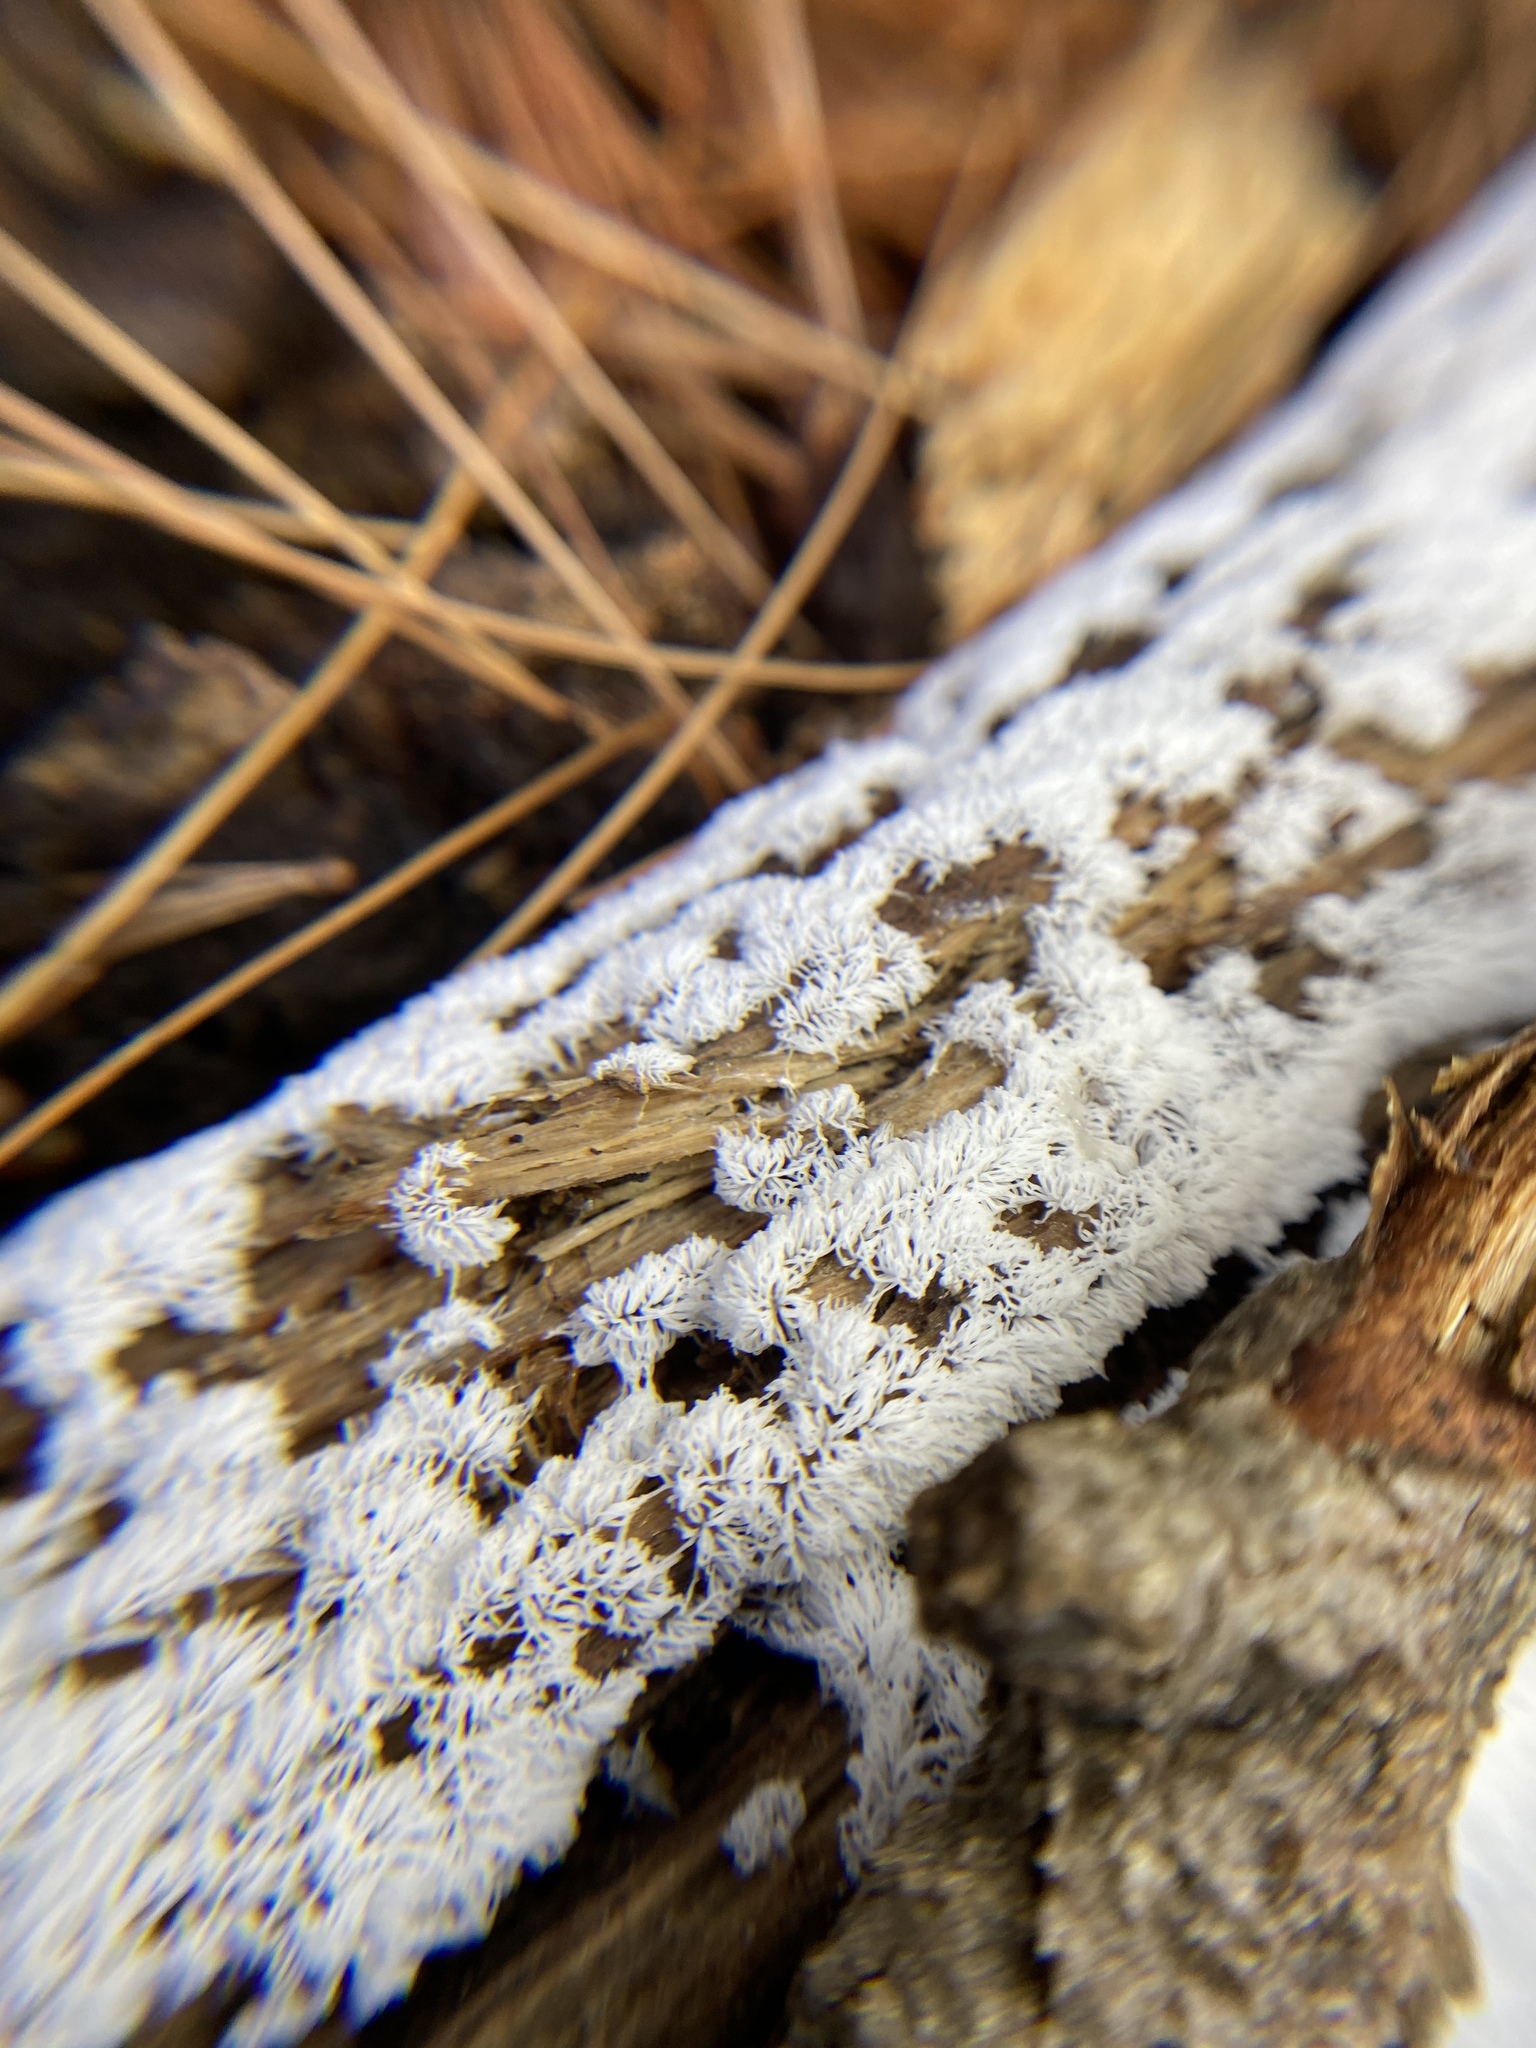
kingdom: Protozoa
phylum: Mycetozoa
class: Protosteliomycetes
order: Ceratiomyxales
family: Ceratiomyxaceae
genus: Ceratiomyxa
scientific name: Ceratiomyxa fruticulosa
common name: Honeycomb coral slime mold
